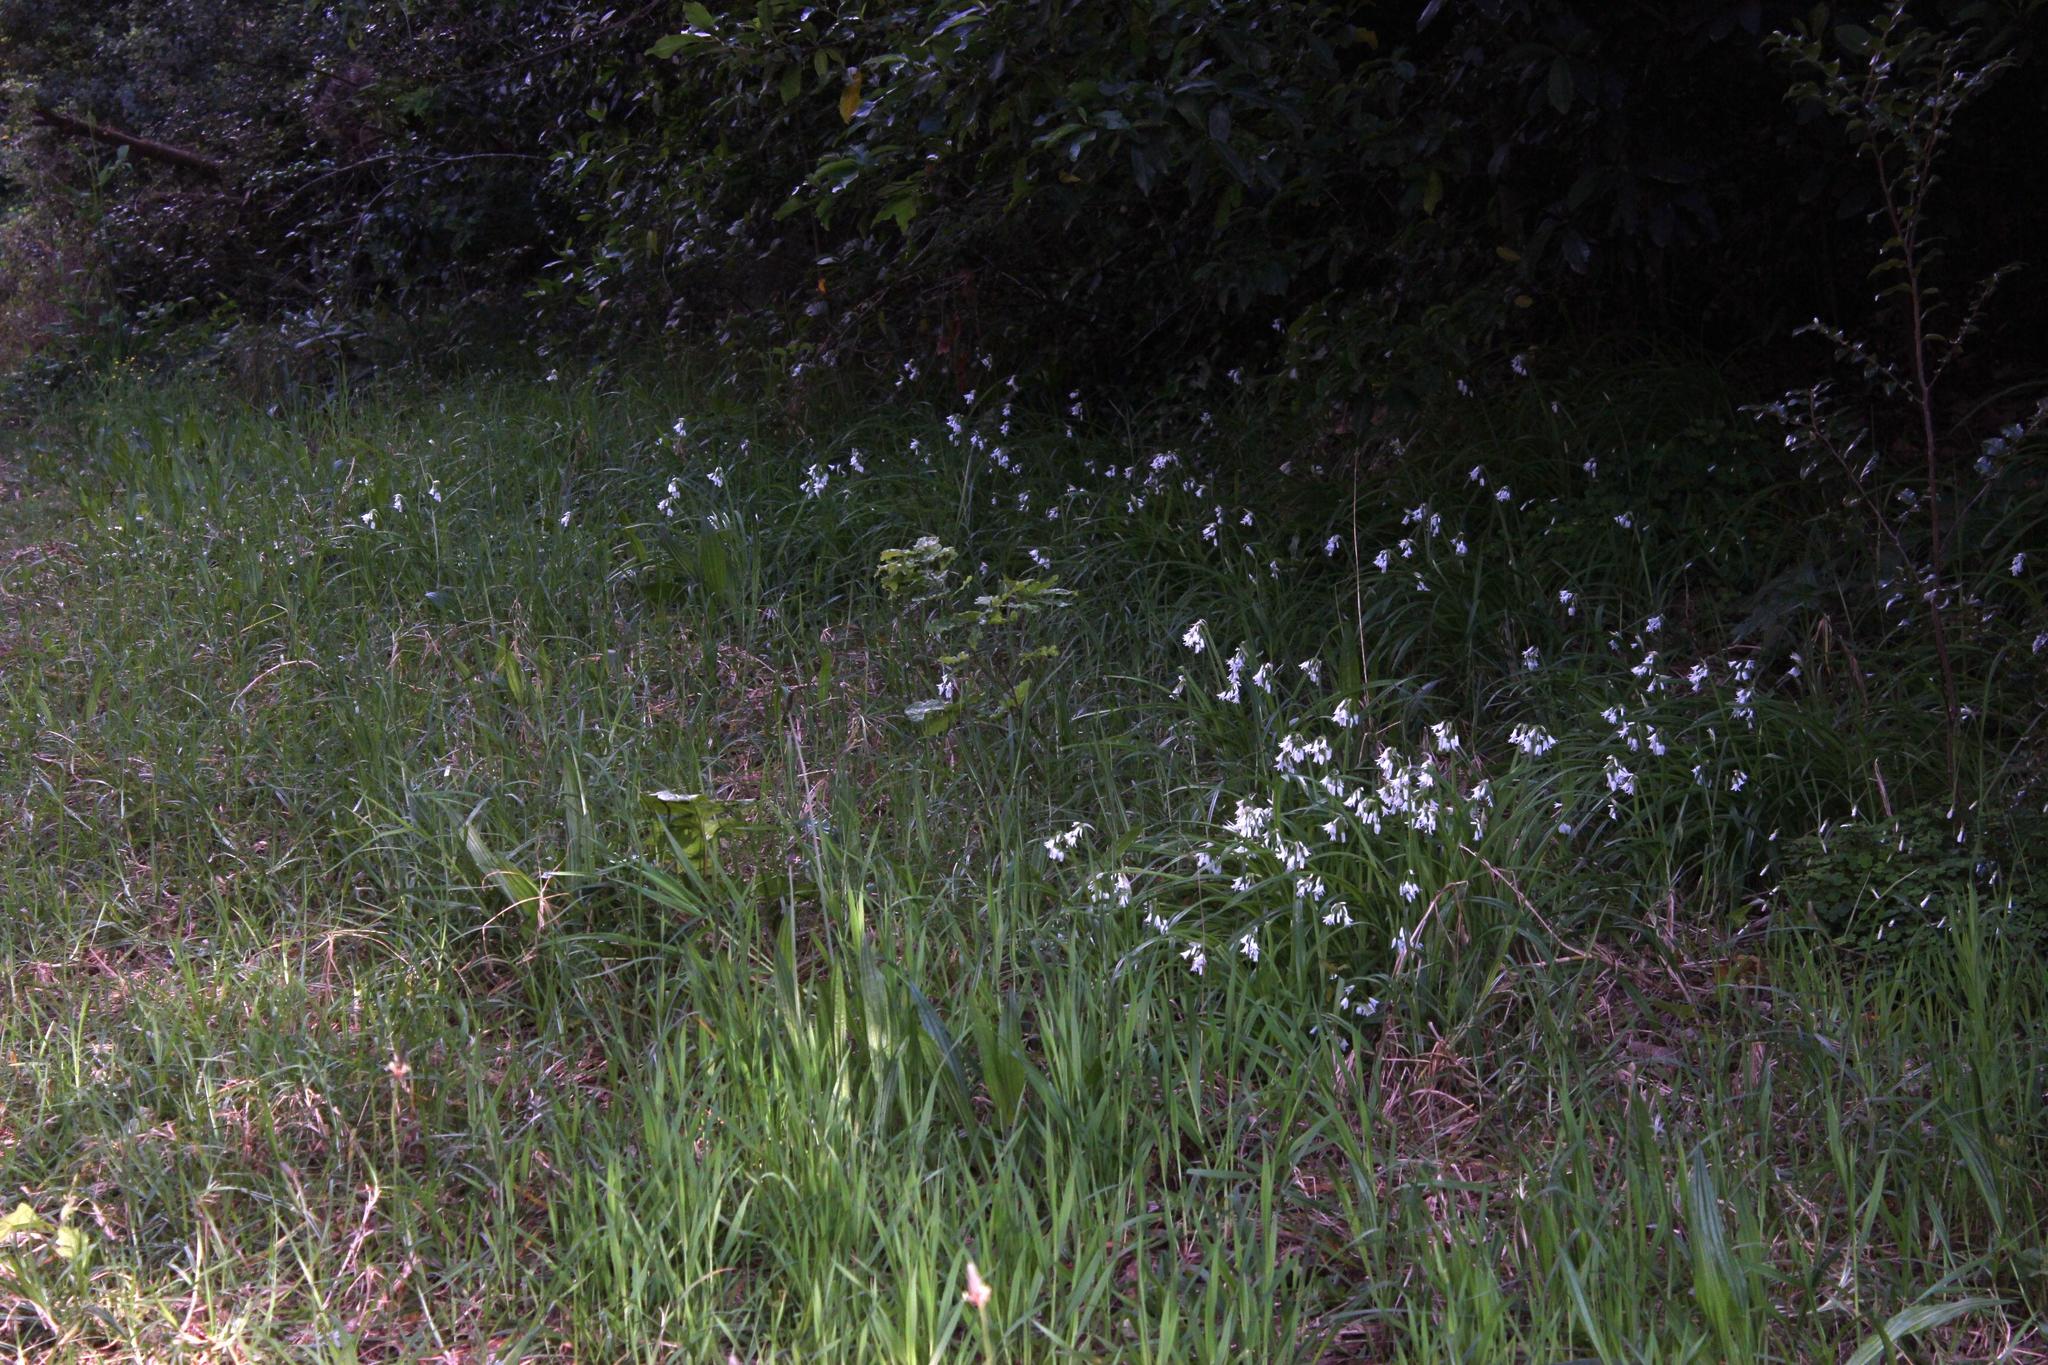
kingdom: Plantae
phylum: Tracheophyta
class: Liliopsida
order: Asparagales
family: Amaryllidaceae
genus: Allium
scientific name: Allium triquetrum
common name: Three-cornered garlic
